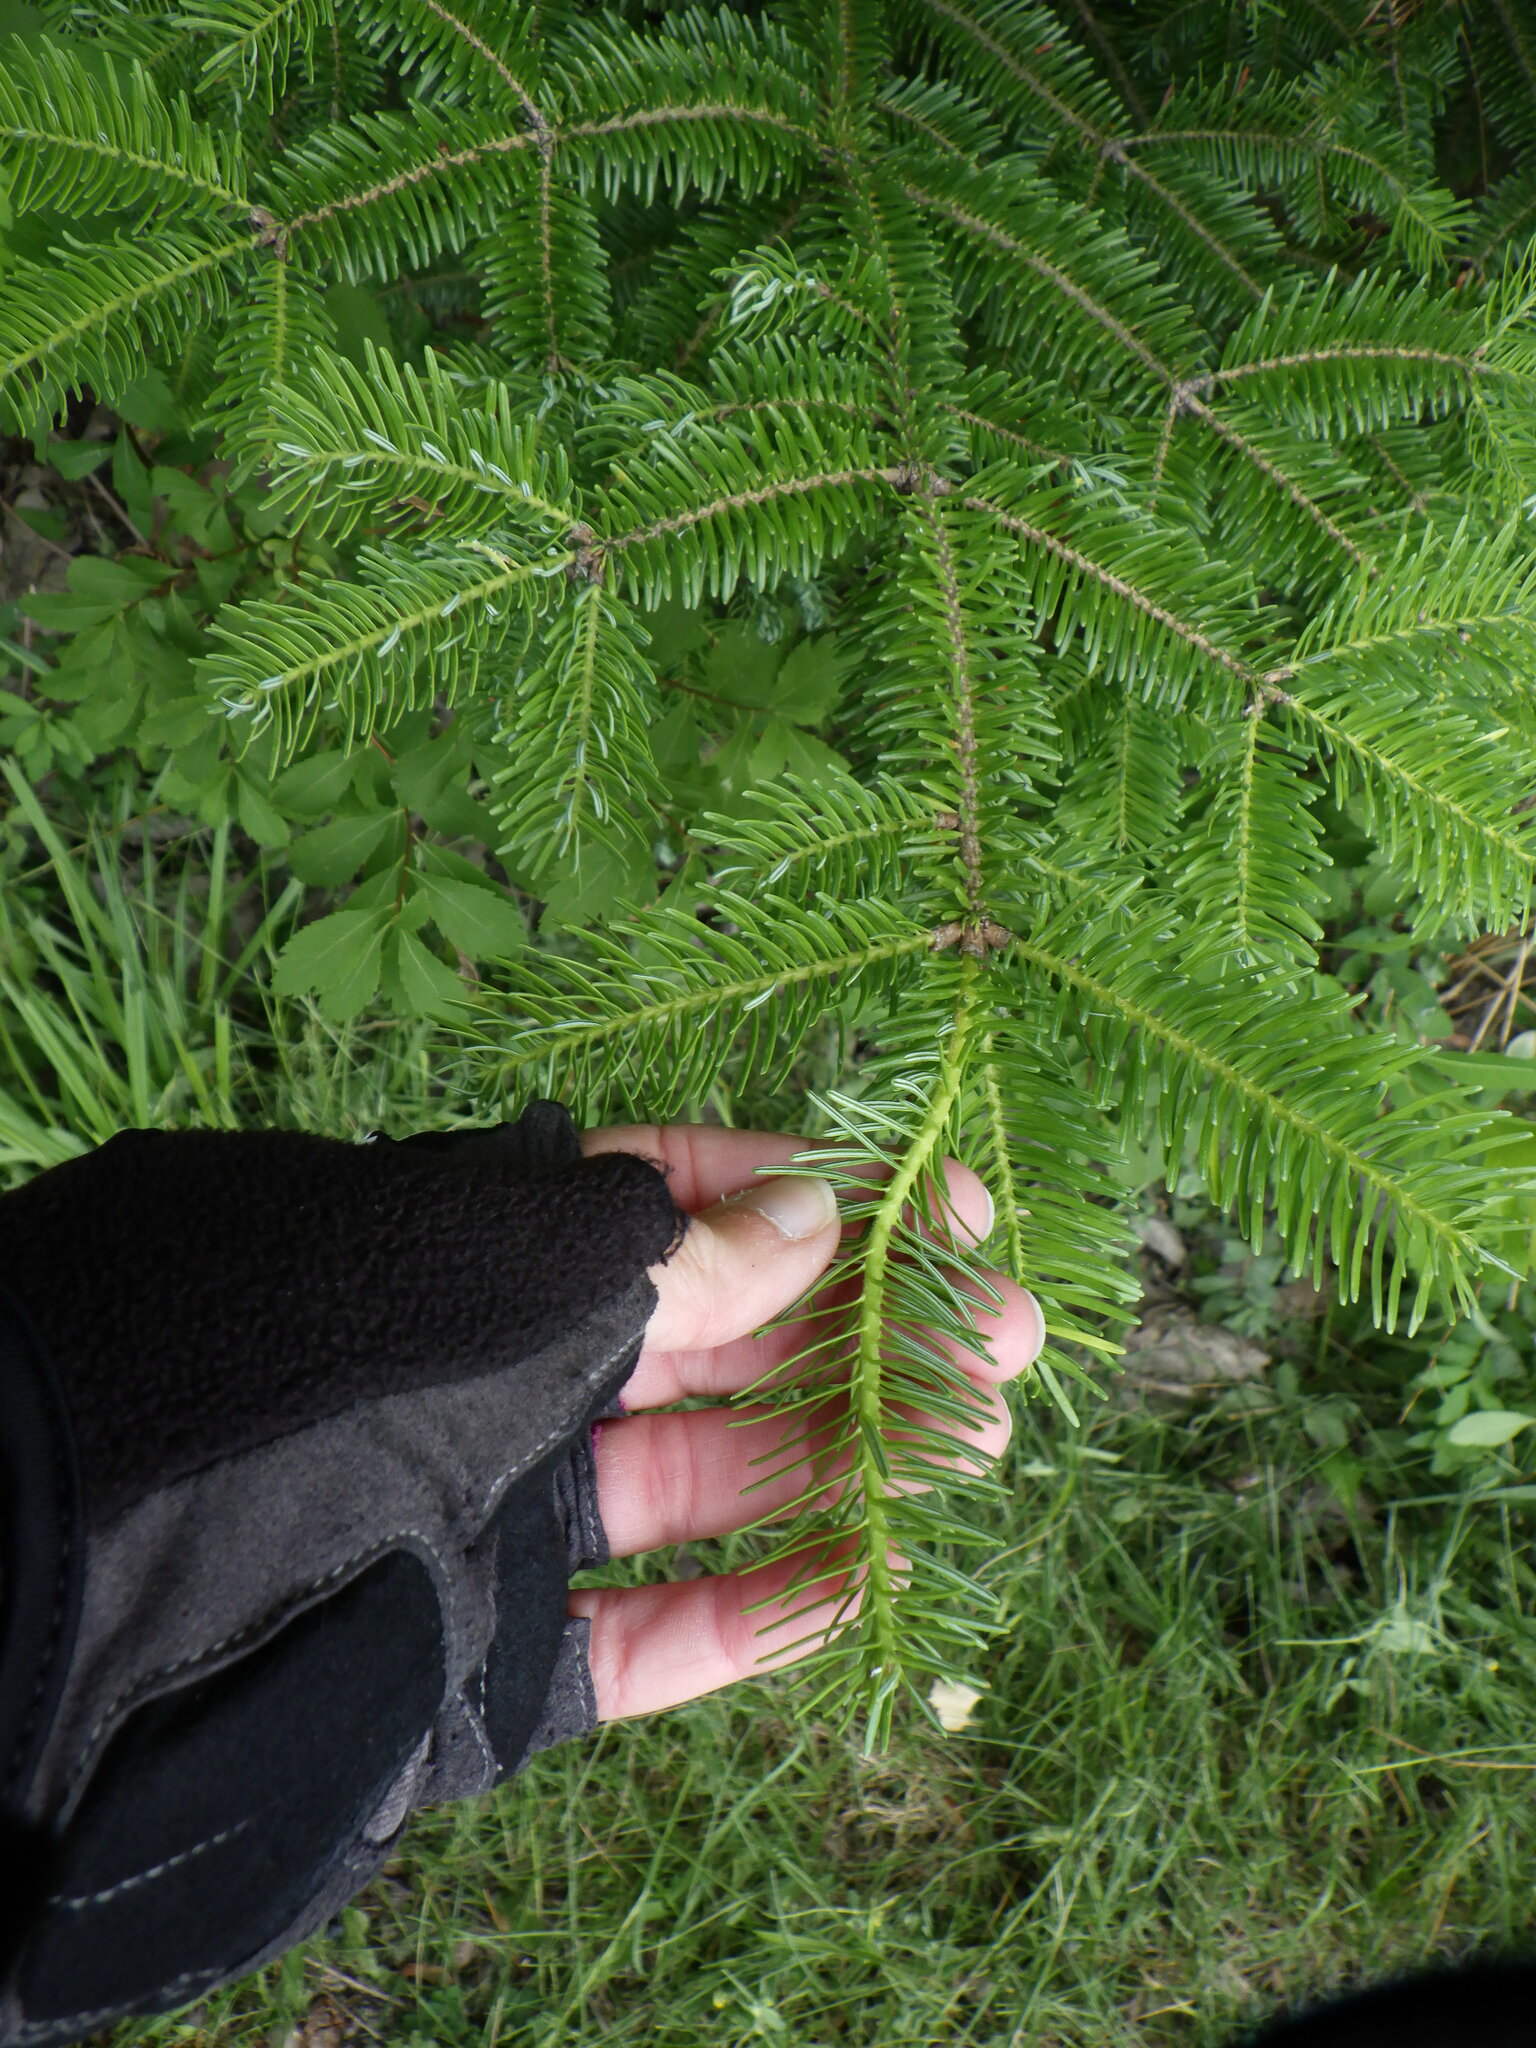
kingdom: Plantae
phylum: Tracheophyta
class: Pinopsida
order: Pinales
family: Pinaceae
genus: Abies
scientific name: Abies balsamea
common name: Balsam fir
